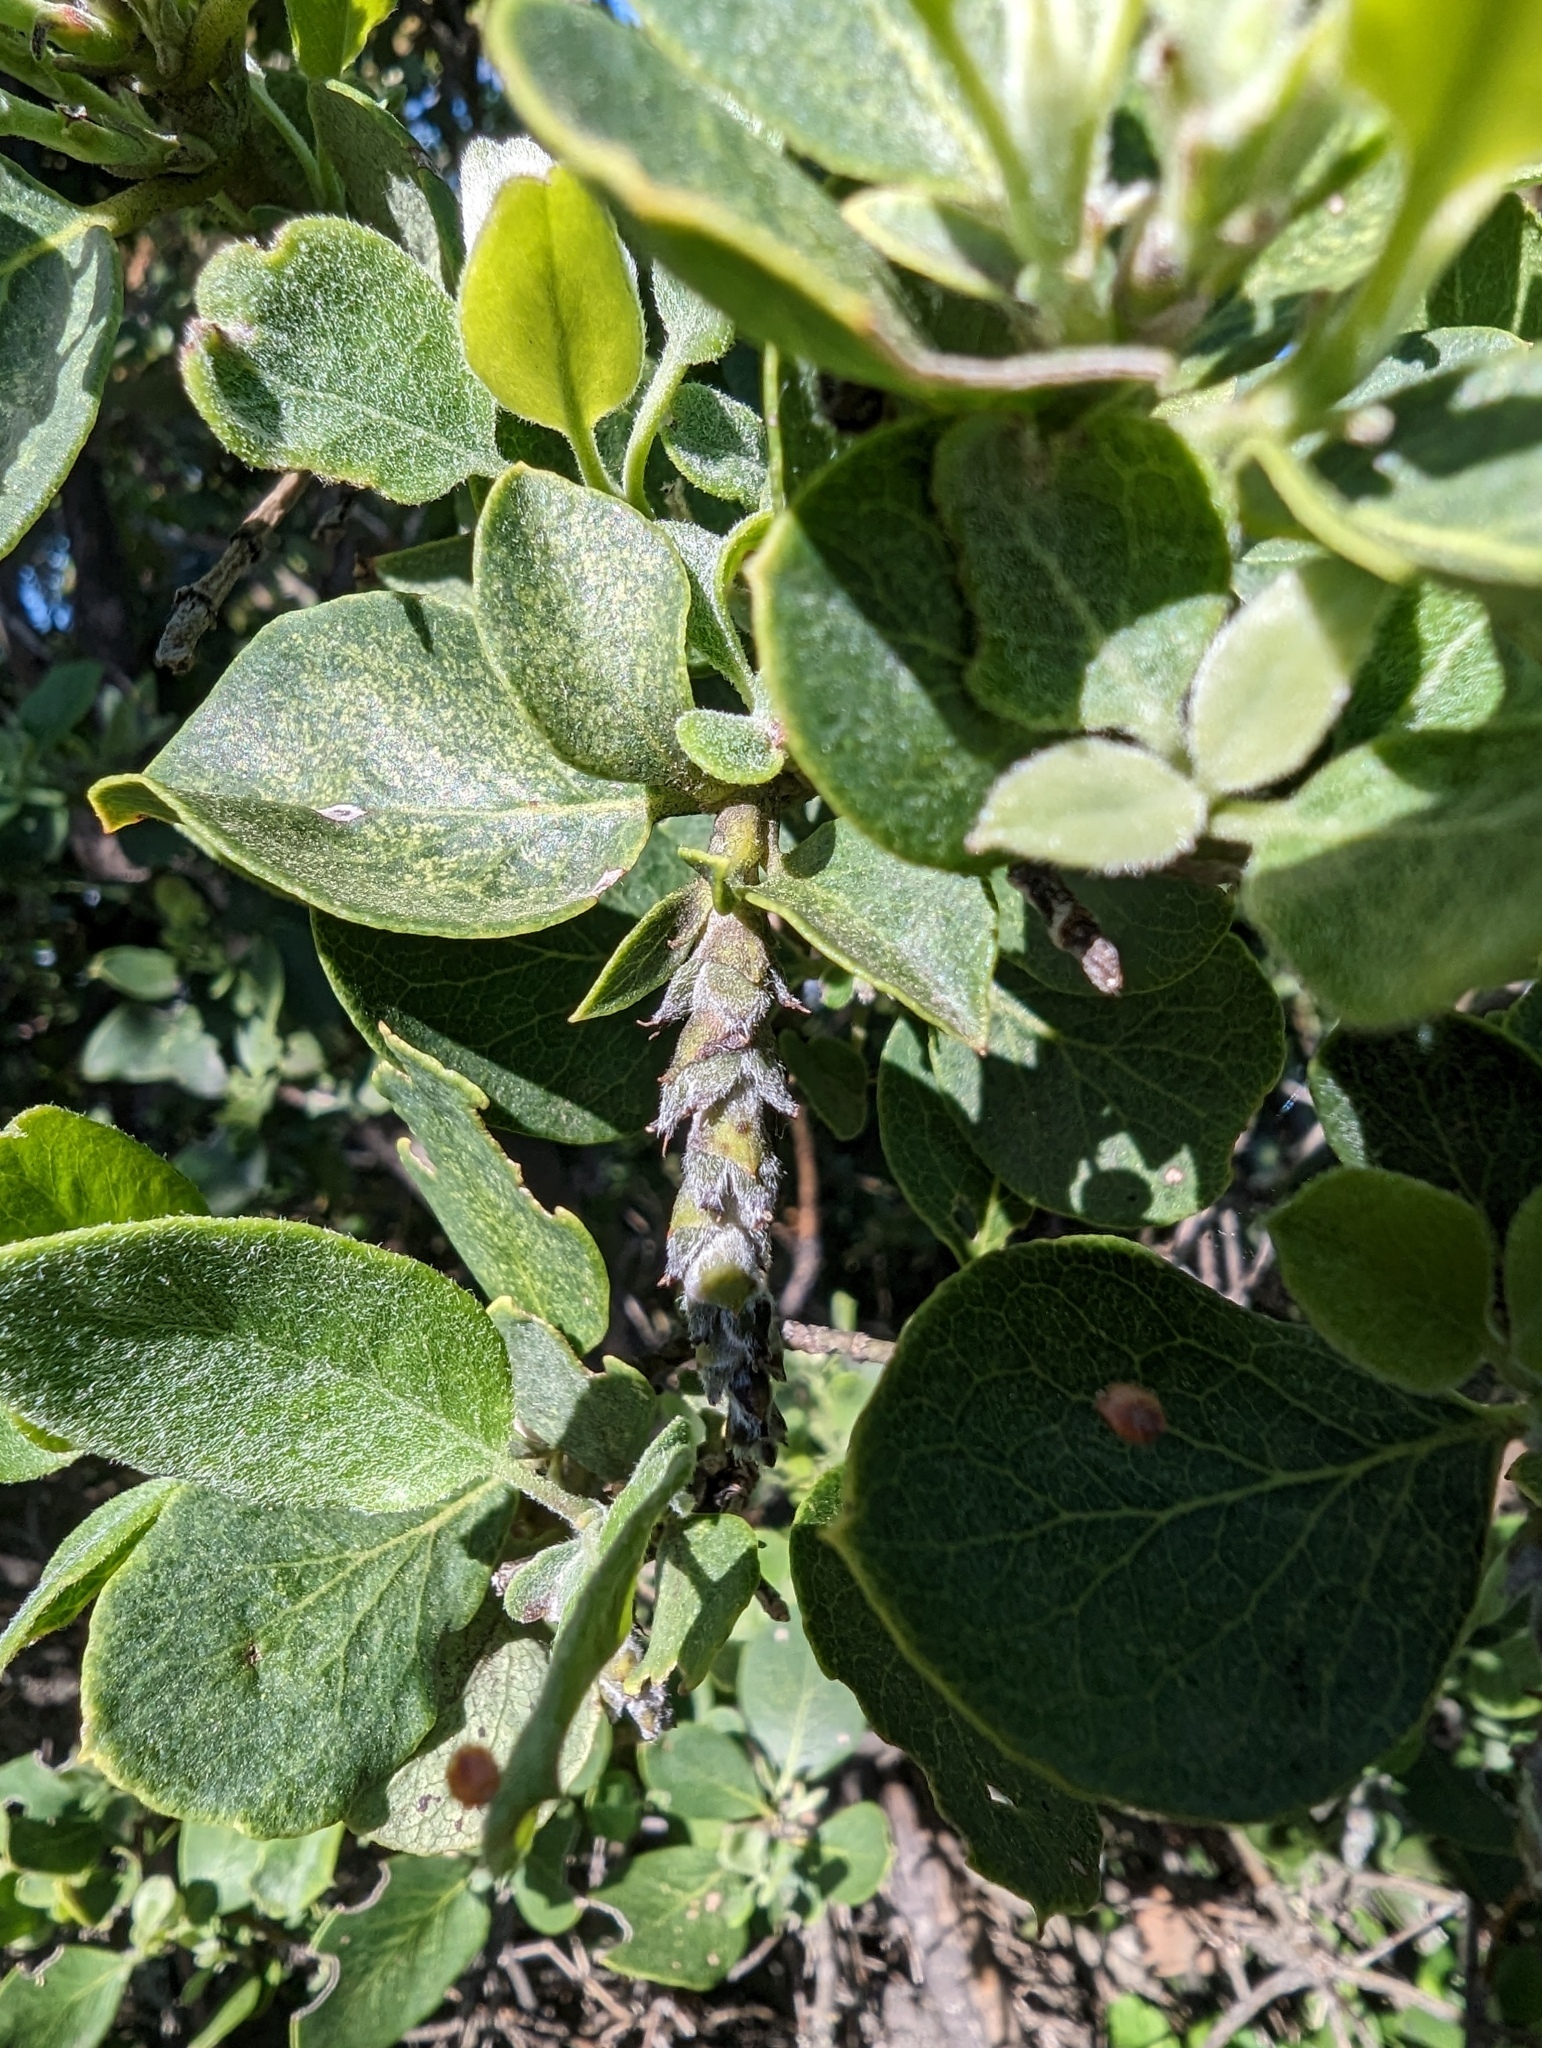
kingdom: Plantae
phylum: Tracheophyta
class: Magnoliopsida
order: Garryales
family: Garryaceae
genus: Garrya
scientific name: Garrya flavescens
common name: Ashy silk-tassel
